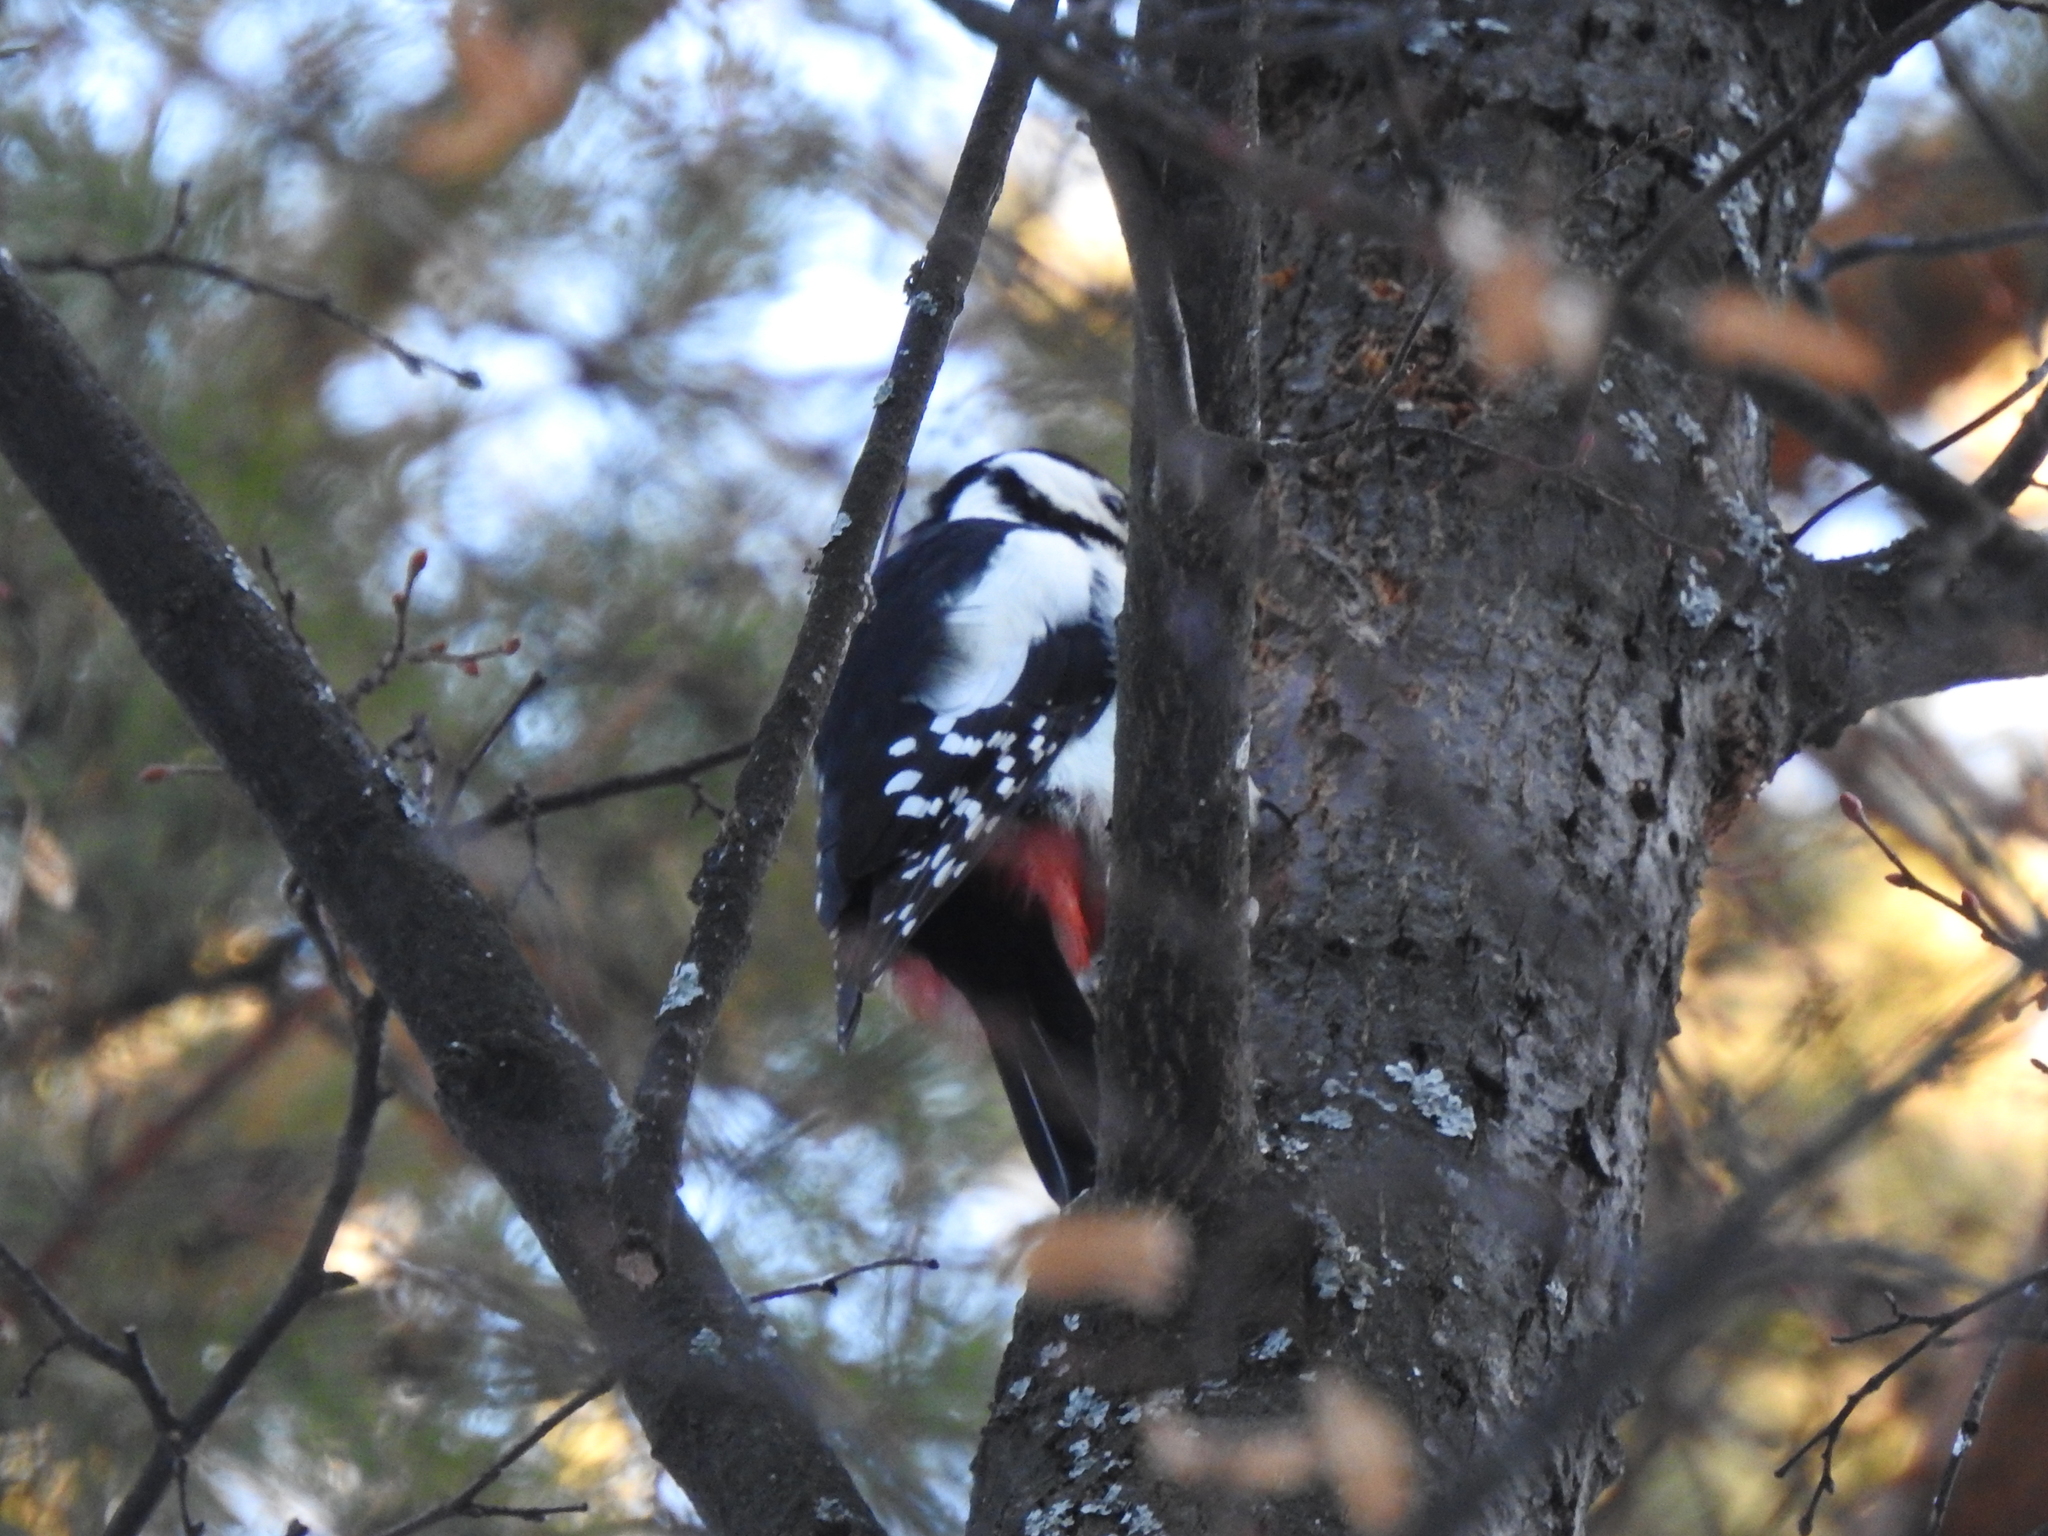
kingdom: Animalia
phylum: Chordata
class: Aves
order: Piciformes
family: Picidae
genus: Dendrocopos
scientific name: Dendrocopos major
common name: Great spotted woodpecker
